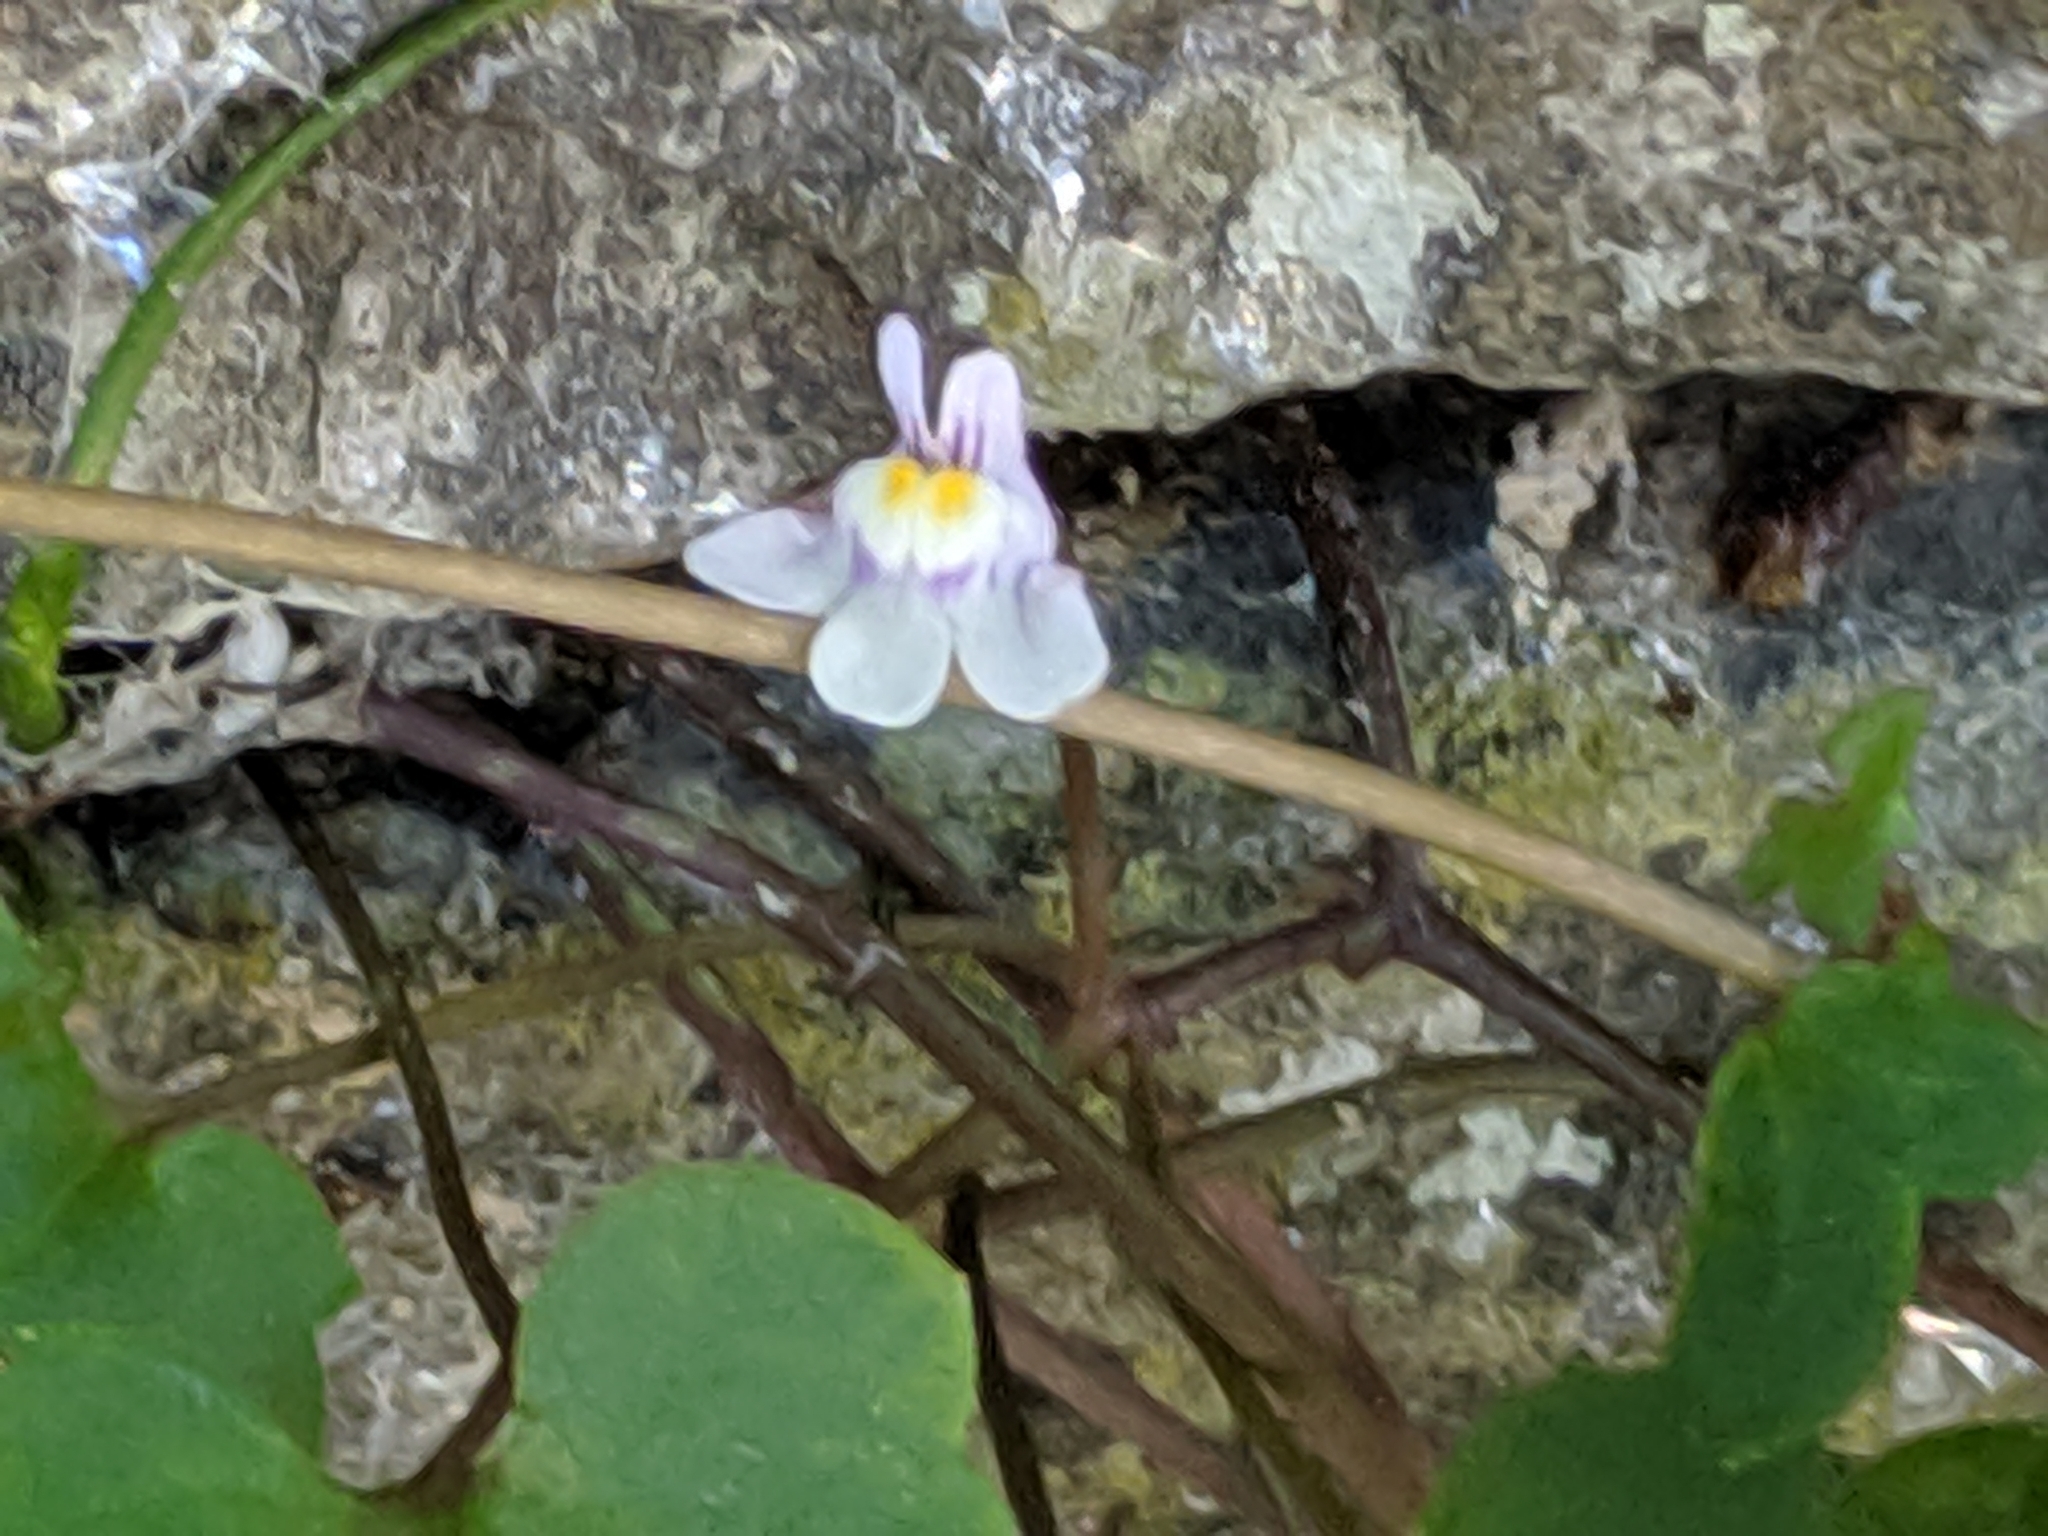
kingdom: Plantae
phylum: Tracheophyta
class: Magnoliopsida
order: Lamiales
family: Plantaginaceae
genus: Cymbalaria
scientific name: Cymbalaria muralis
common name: Ivy-leaved toadflax
